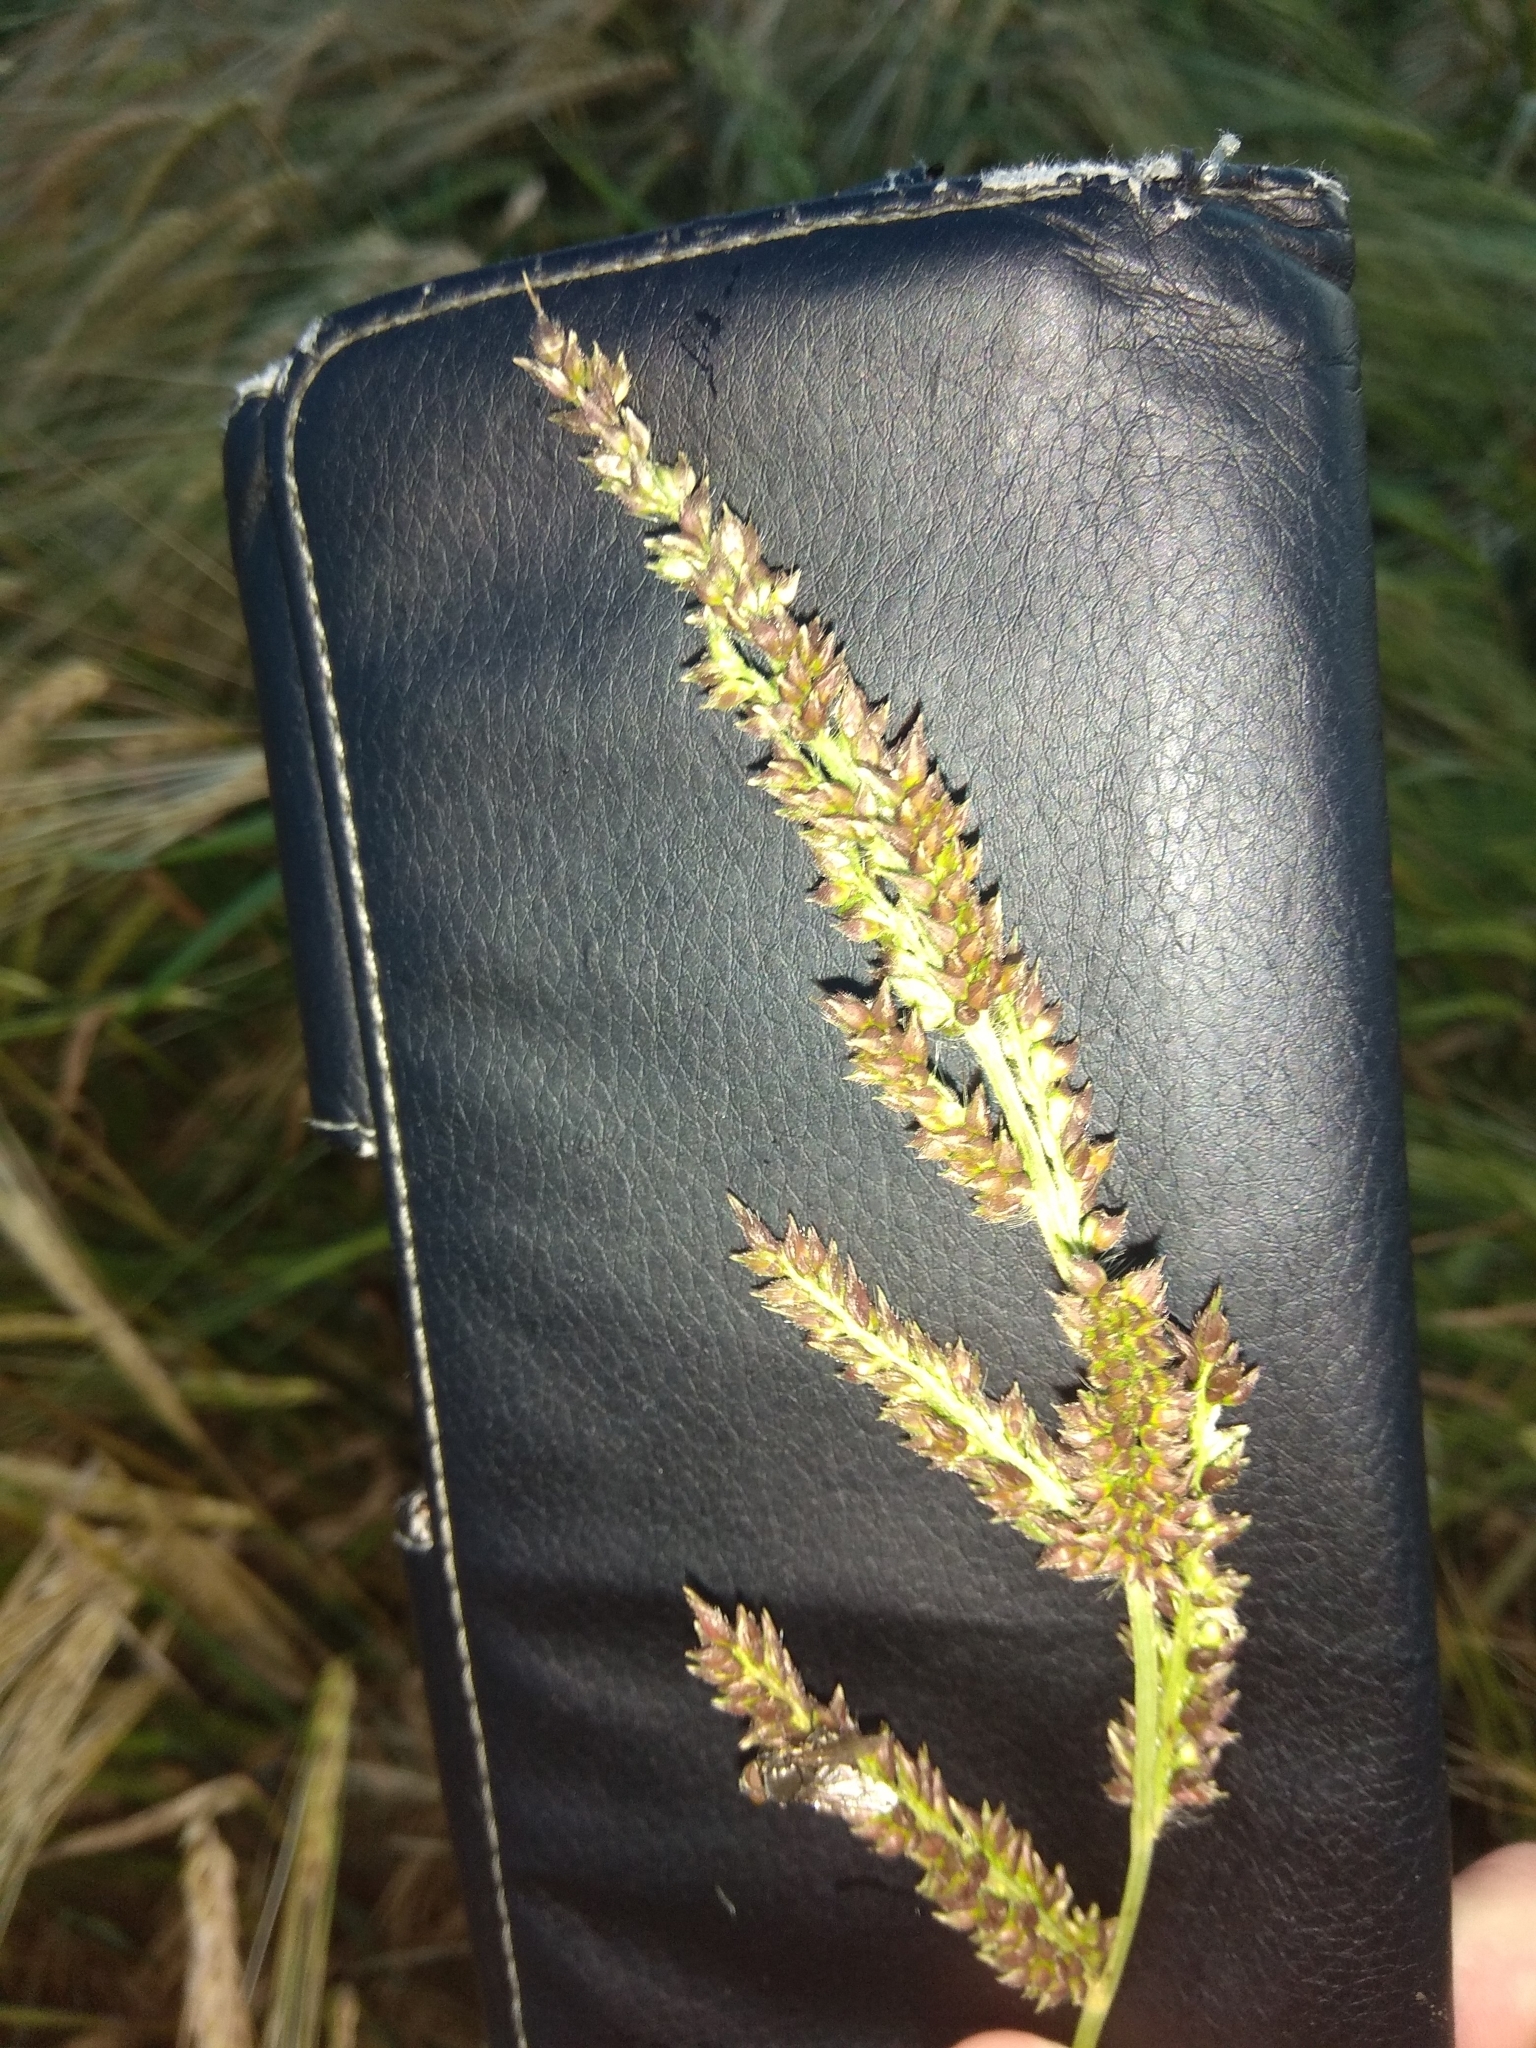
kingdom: Plantae
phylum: Tracheophyta
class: Liliopsida
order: Poales
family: Poaceae
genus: Echinochloa
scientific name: Echinochloa crus-galli
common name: Cockspur
